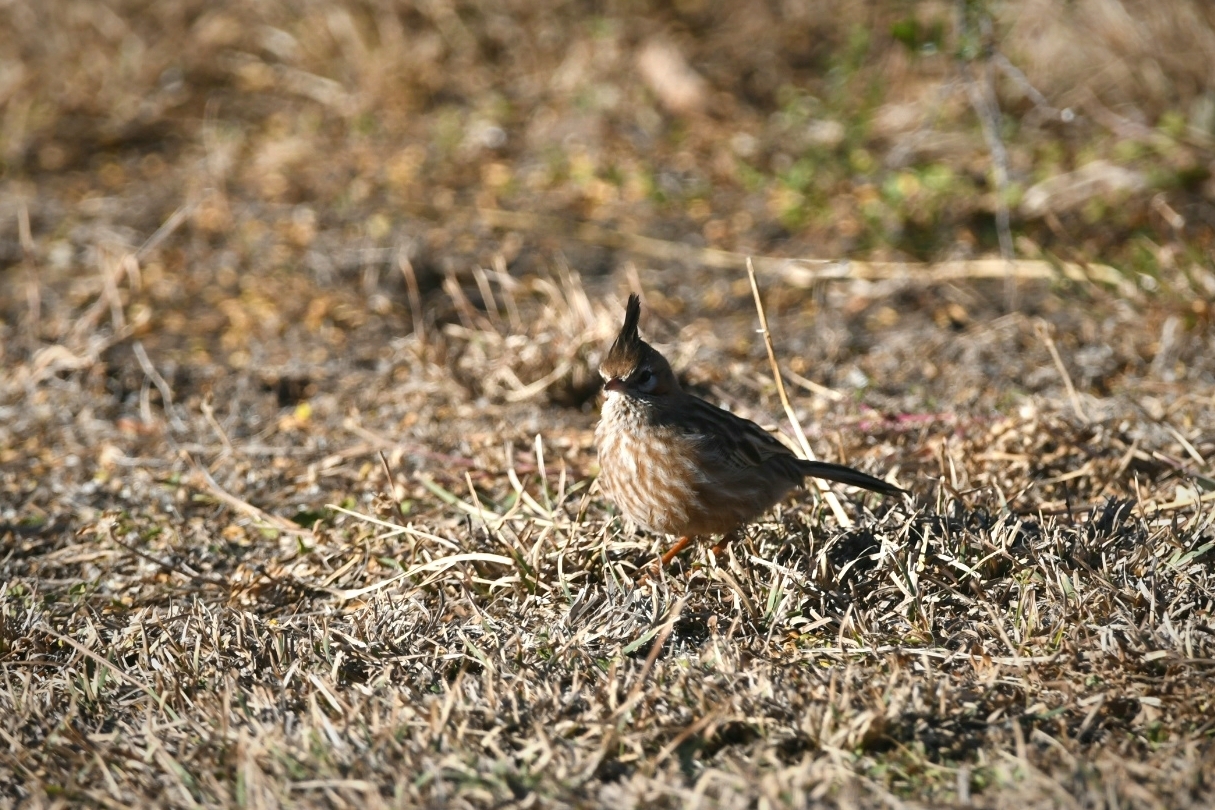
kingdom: Animalia
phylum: Chordata
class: Aves
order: Passeriformes
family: Furnariidae
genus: Coryphistera
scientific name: Coryphistera alaudina
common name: Lark-like brushrunner
